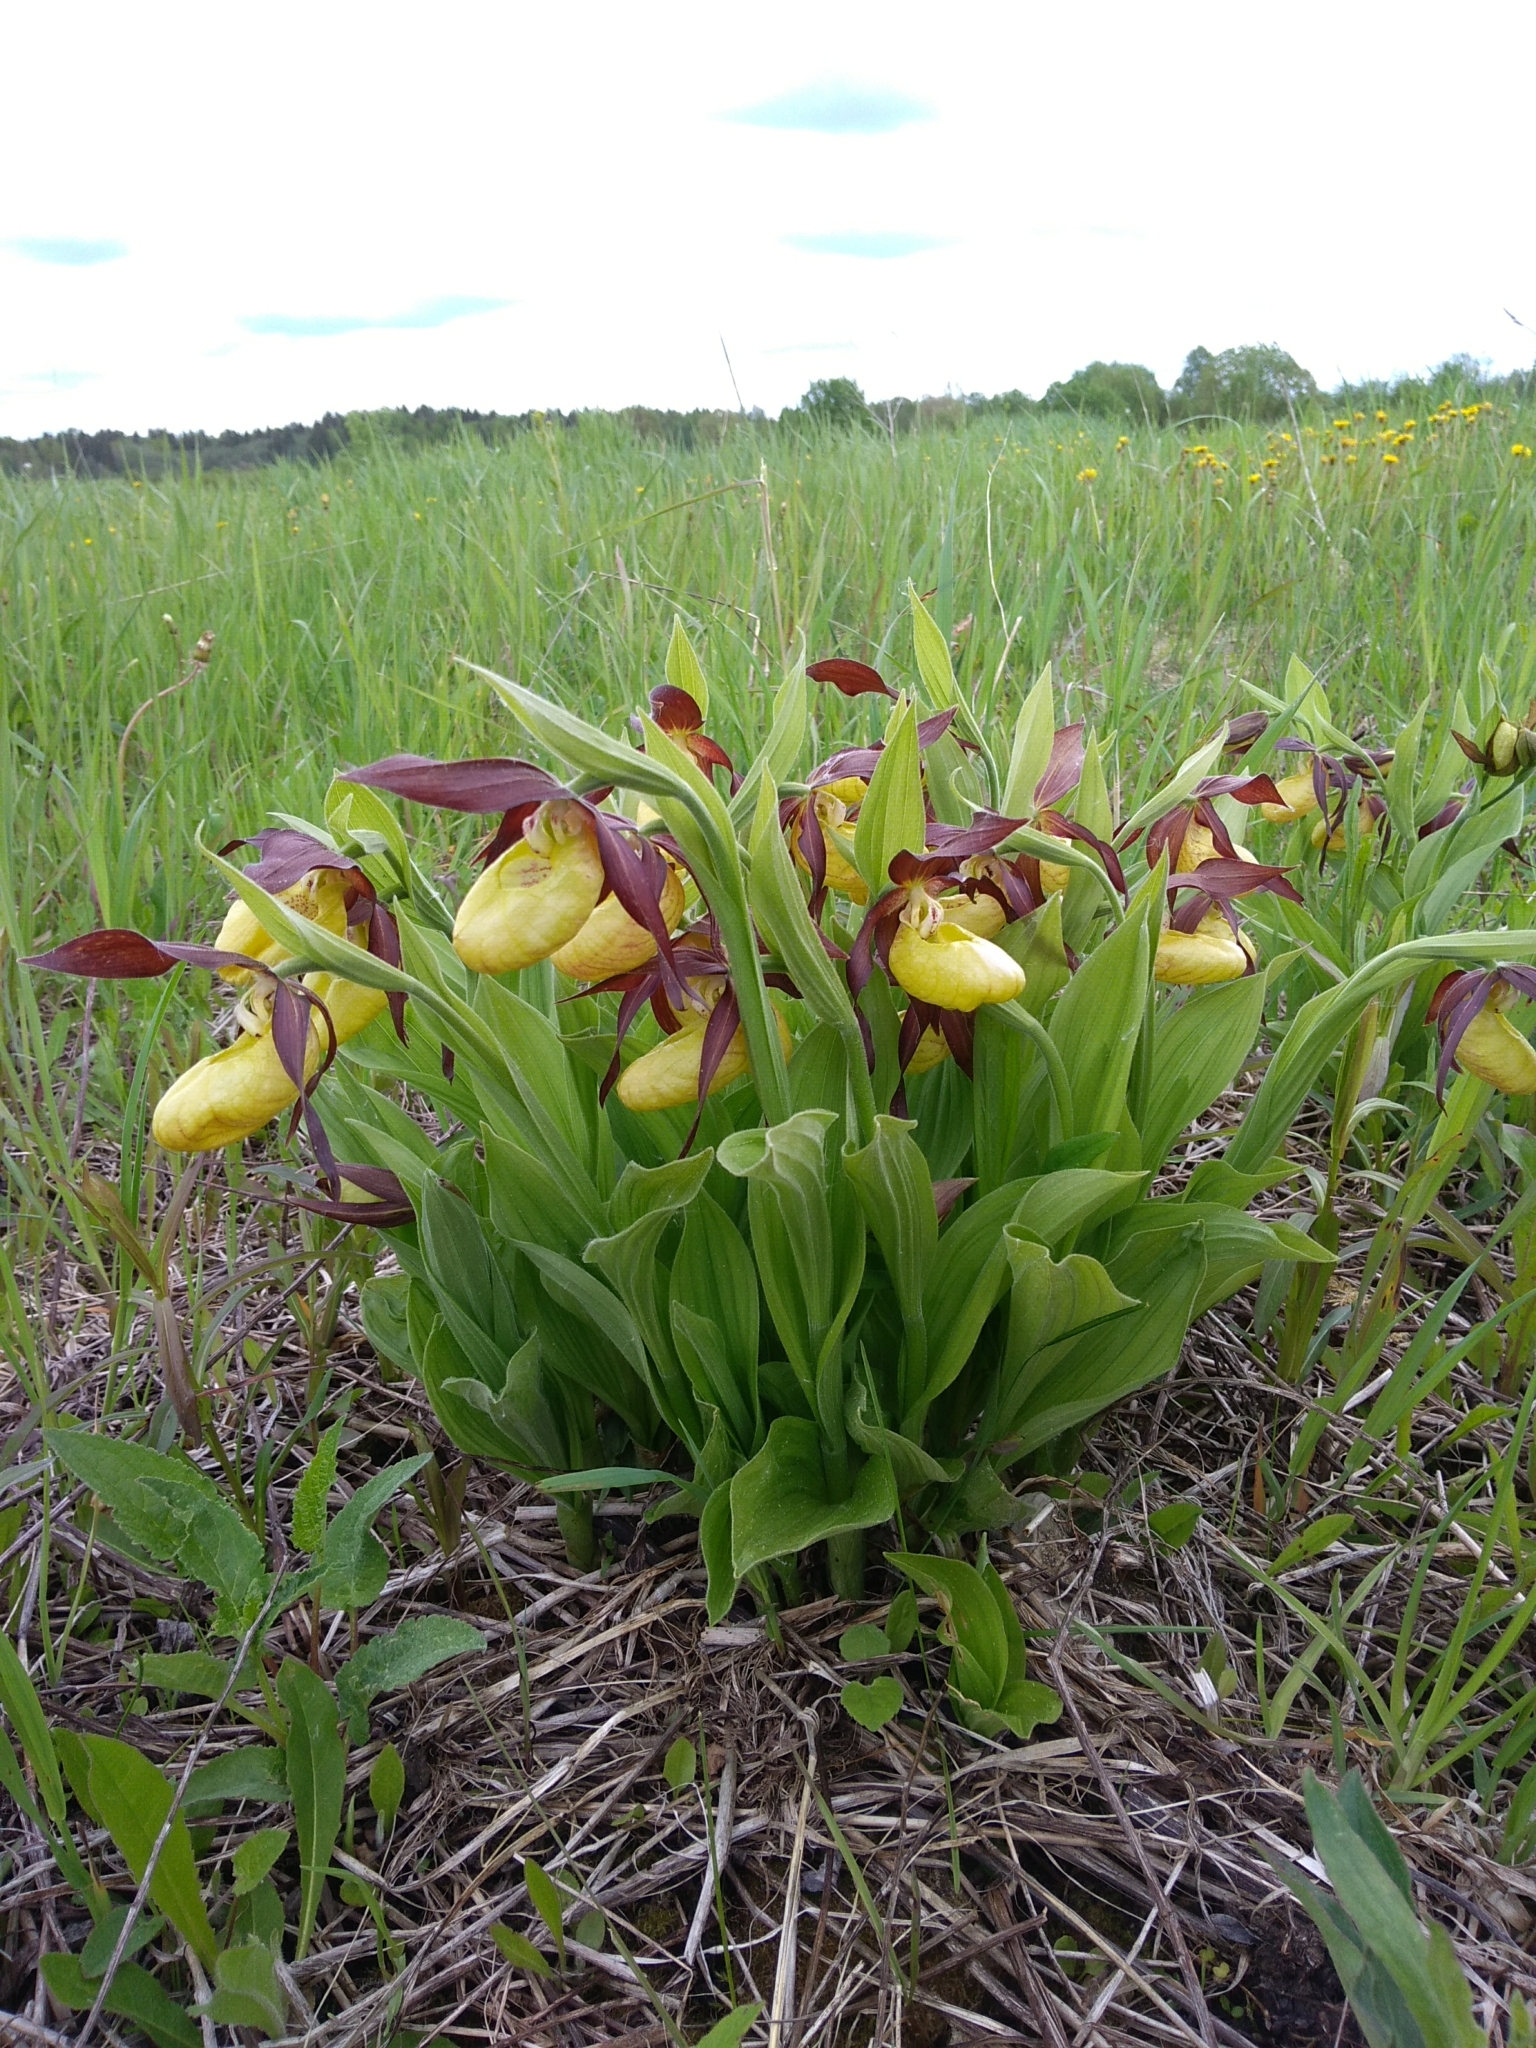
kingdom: Plantae
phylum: Tracheophyta
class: Liliopsida
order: Asparagales
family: Orchidaceae
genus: Cypripedium
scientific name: Cypripedium calceolus
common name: Lady's-slipper
